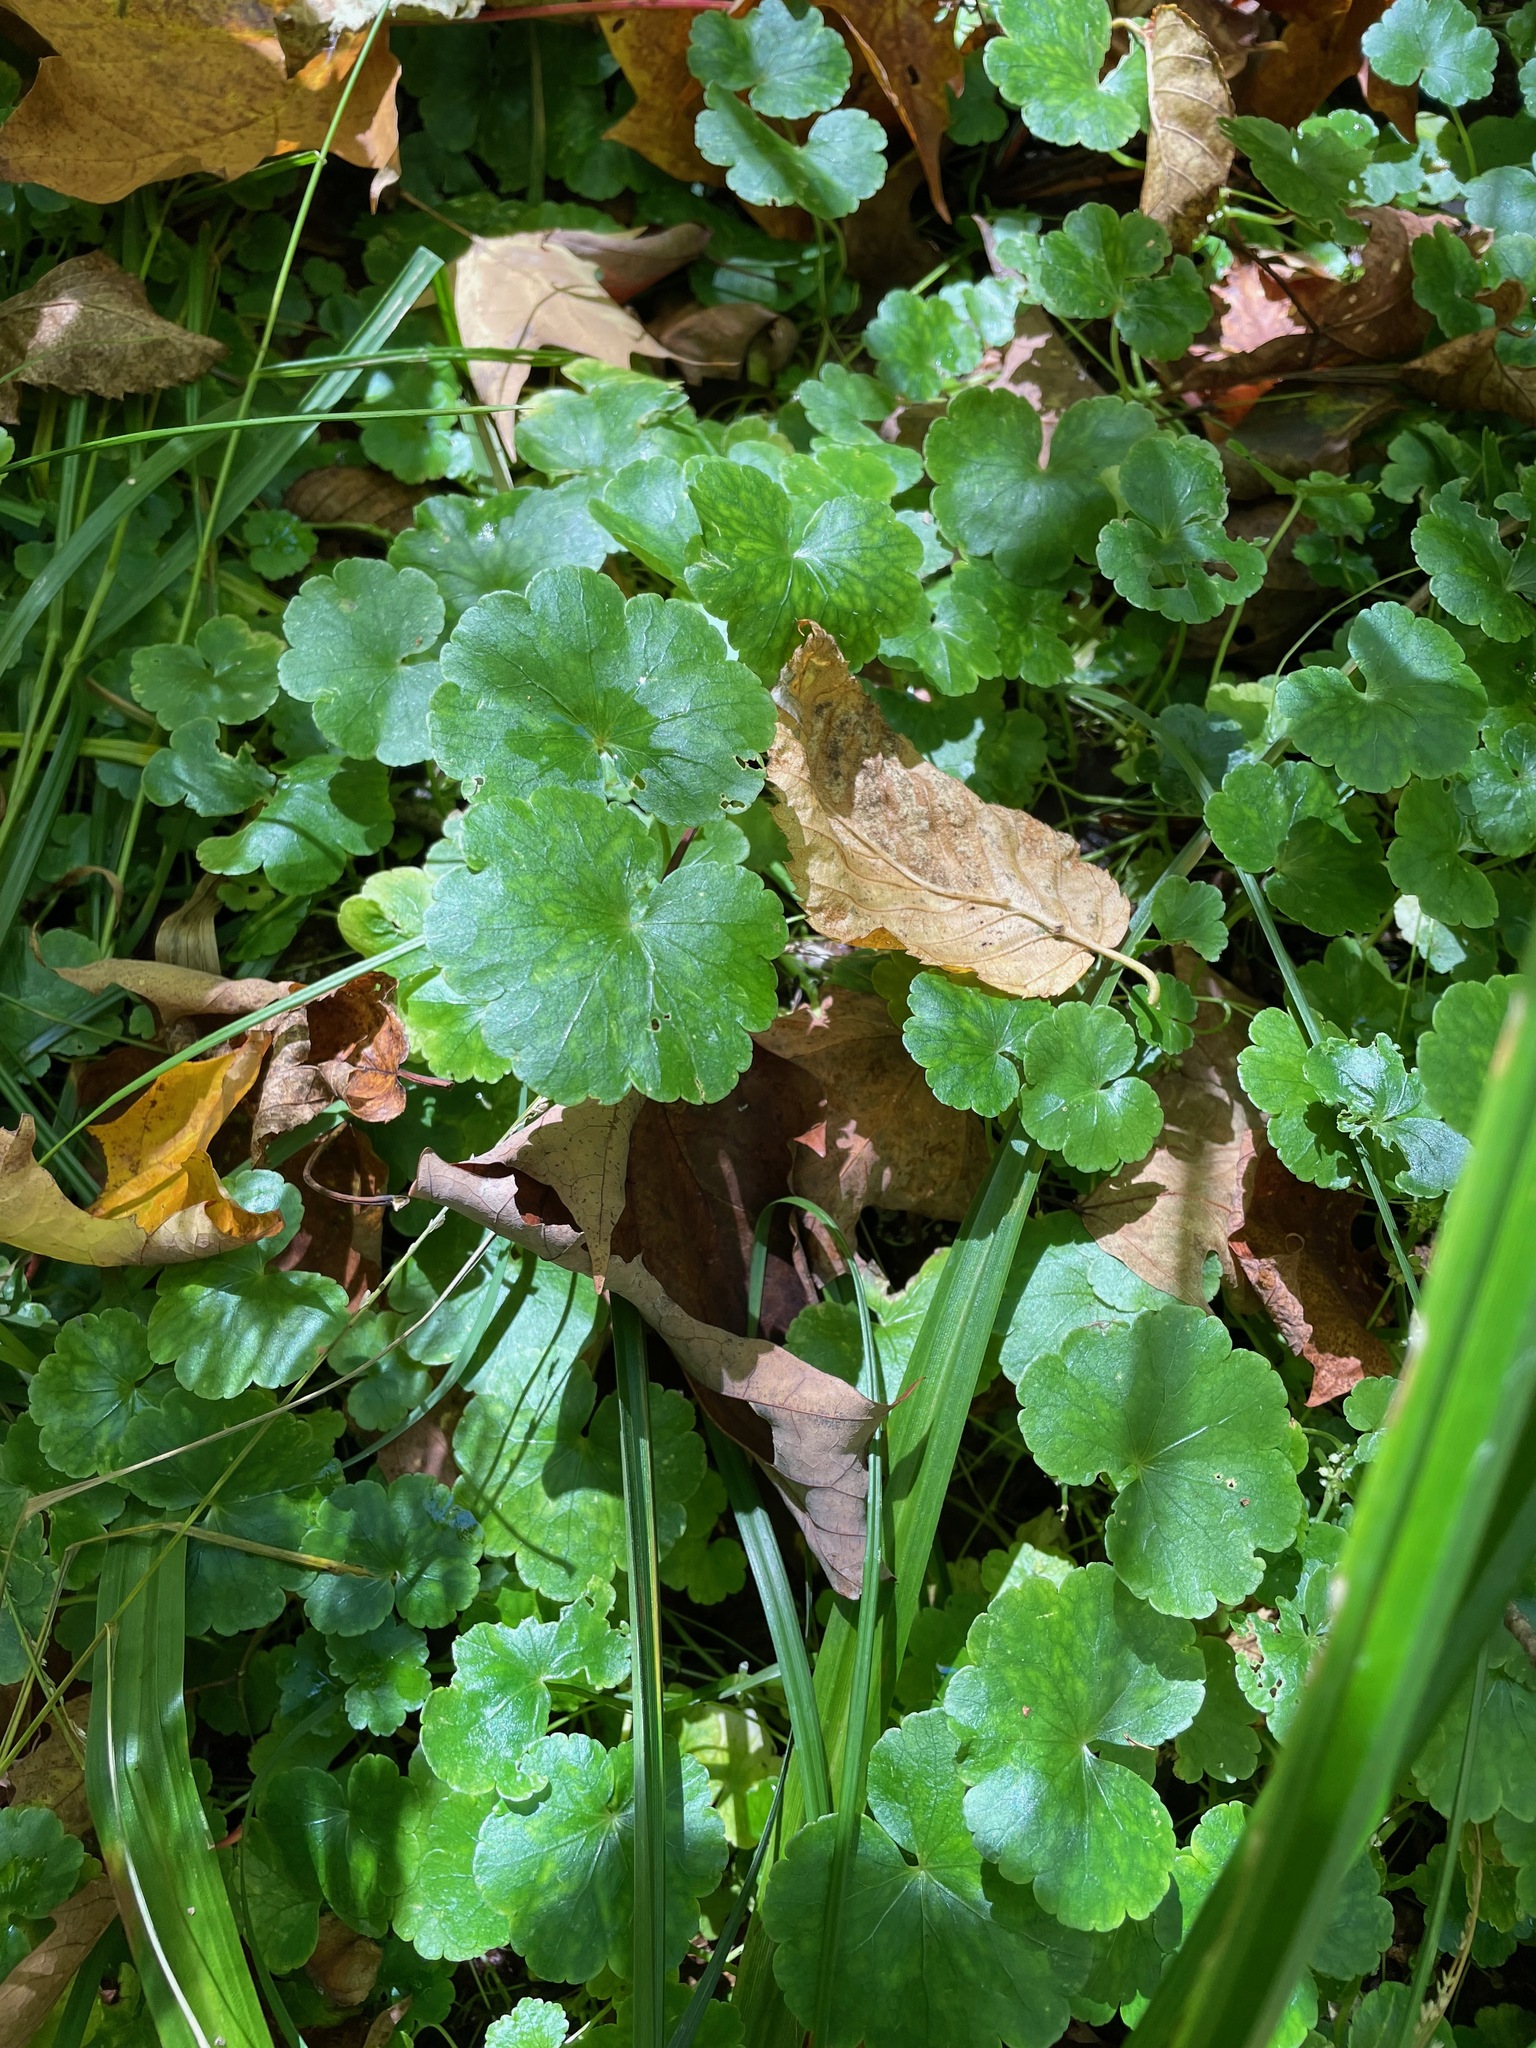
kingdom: Plantae
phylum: Tracheophyta
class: Magnoliopsida
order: Apiales
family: Araliaceae
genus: Hydrocotyle
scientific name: Hydrocotyle americana
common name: American water-pennywort
